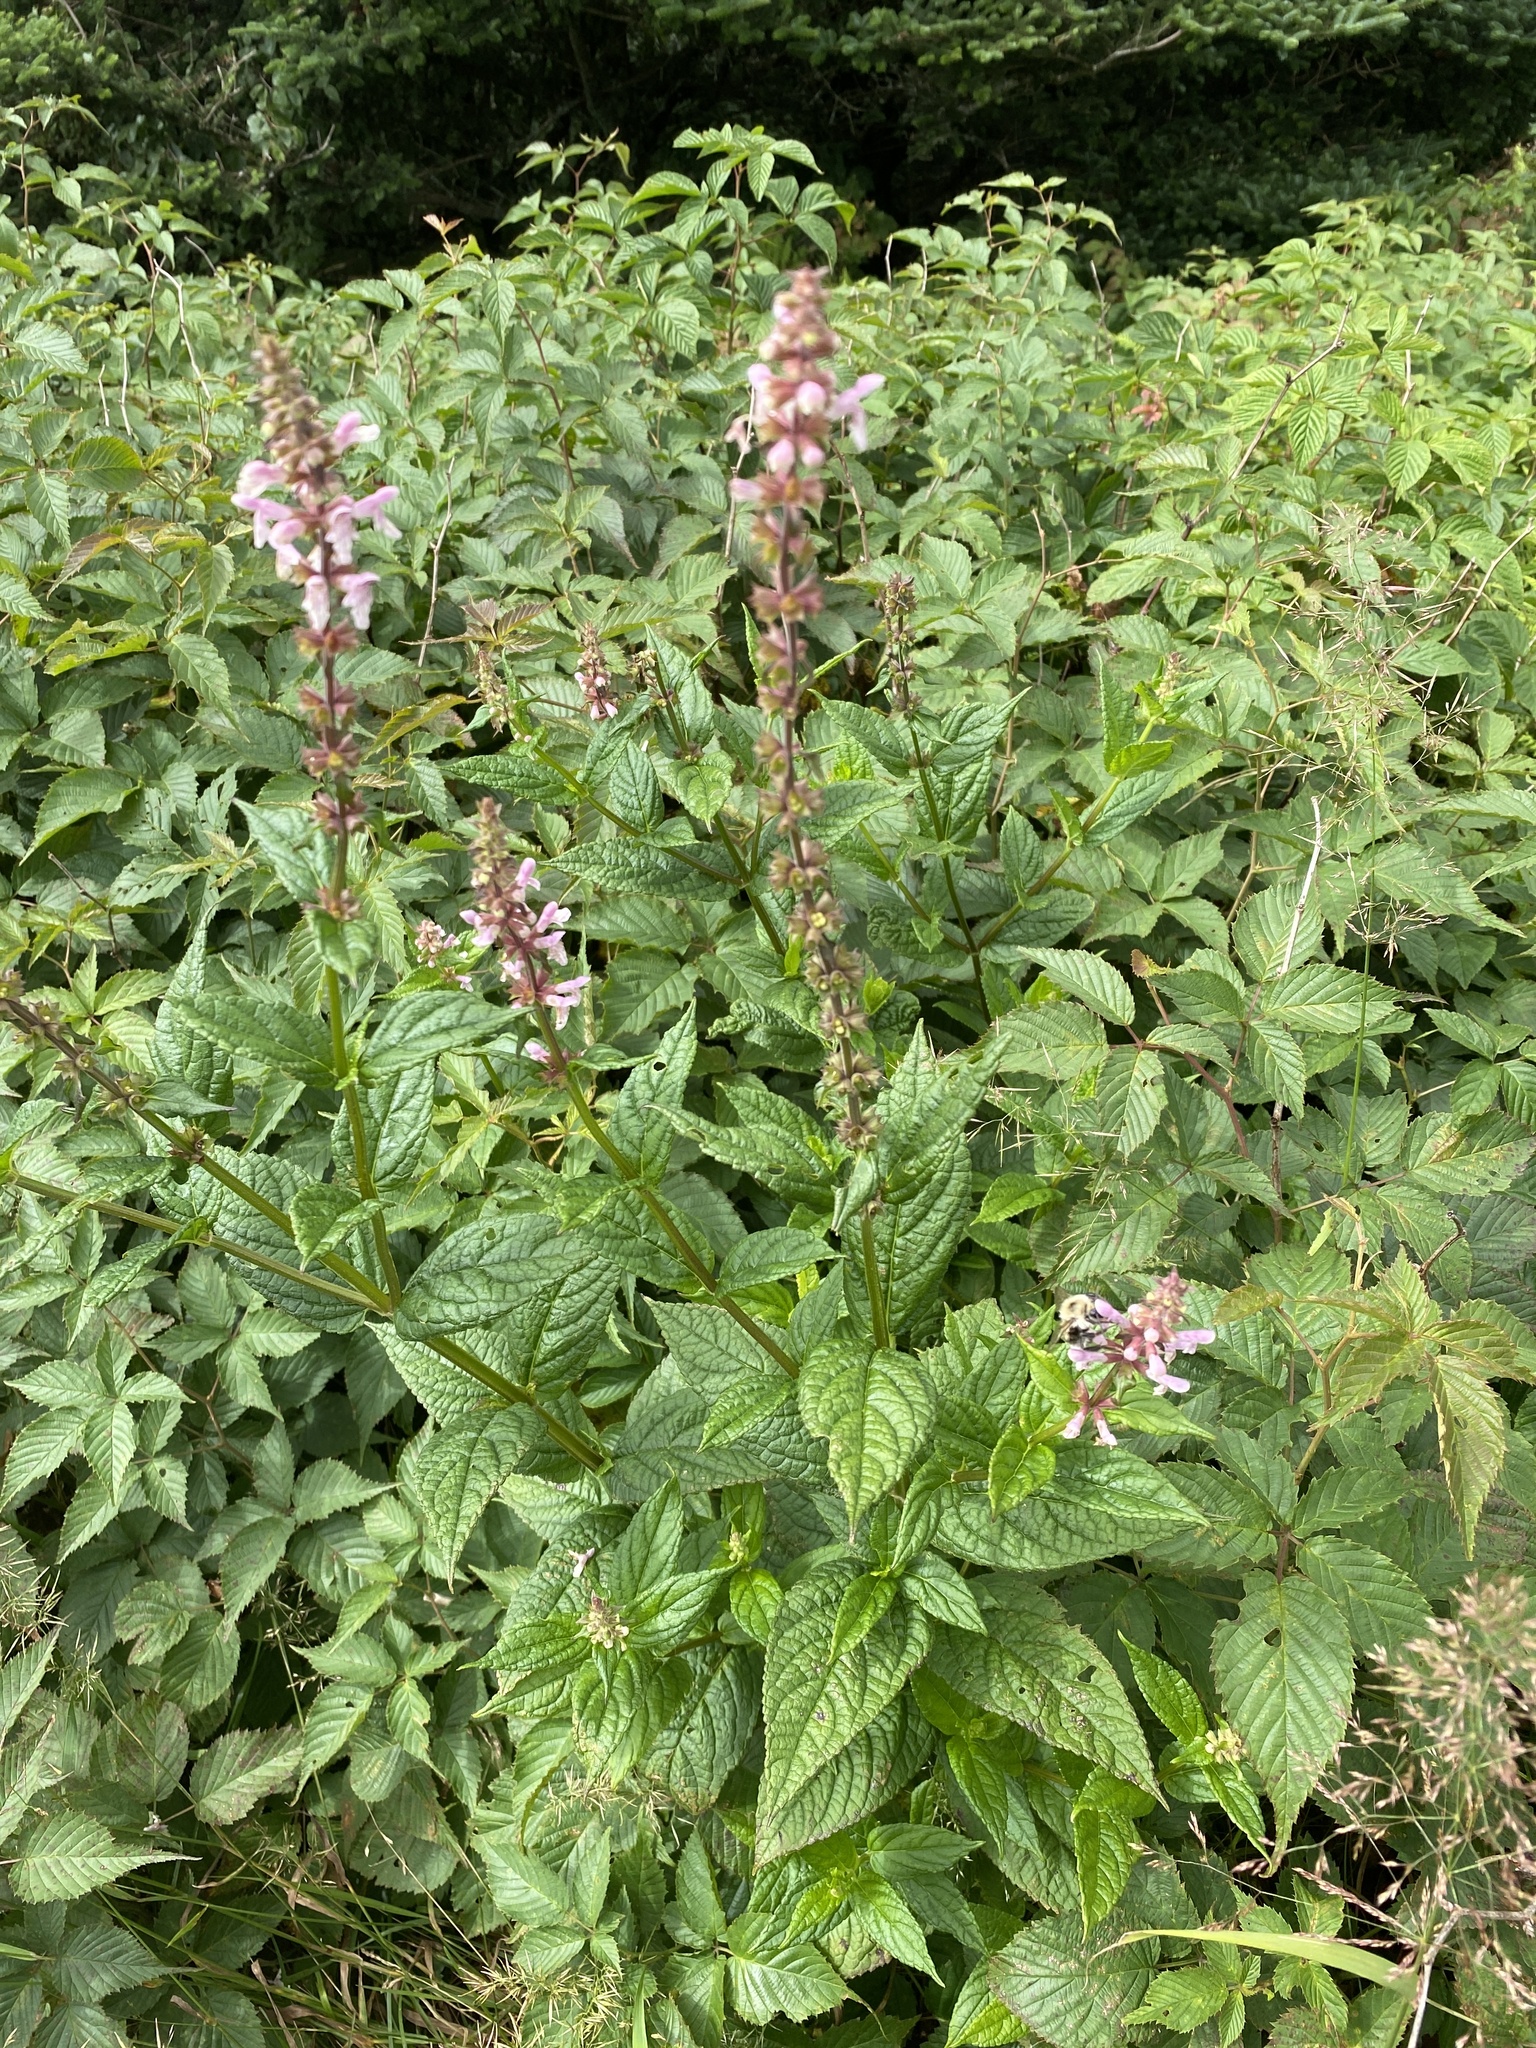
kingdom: Plantae
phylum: Tracheophyta
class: Magnoliopsida
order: Lamiales
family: Lamiaceae
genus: Teucrium
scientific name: Teucrium canadense
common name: American germander
